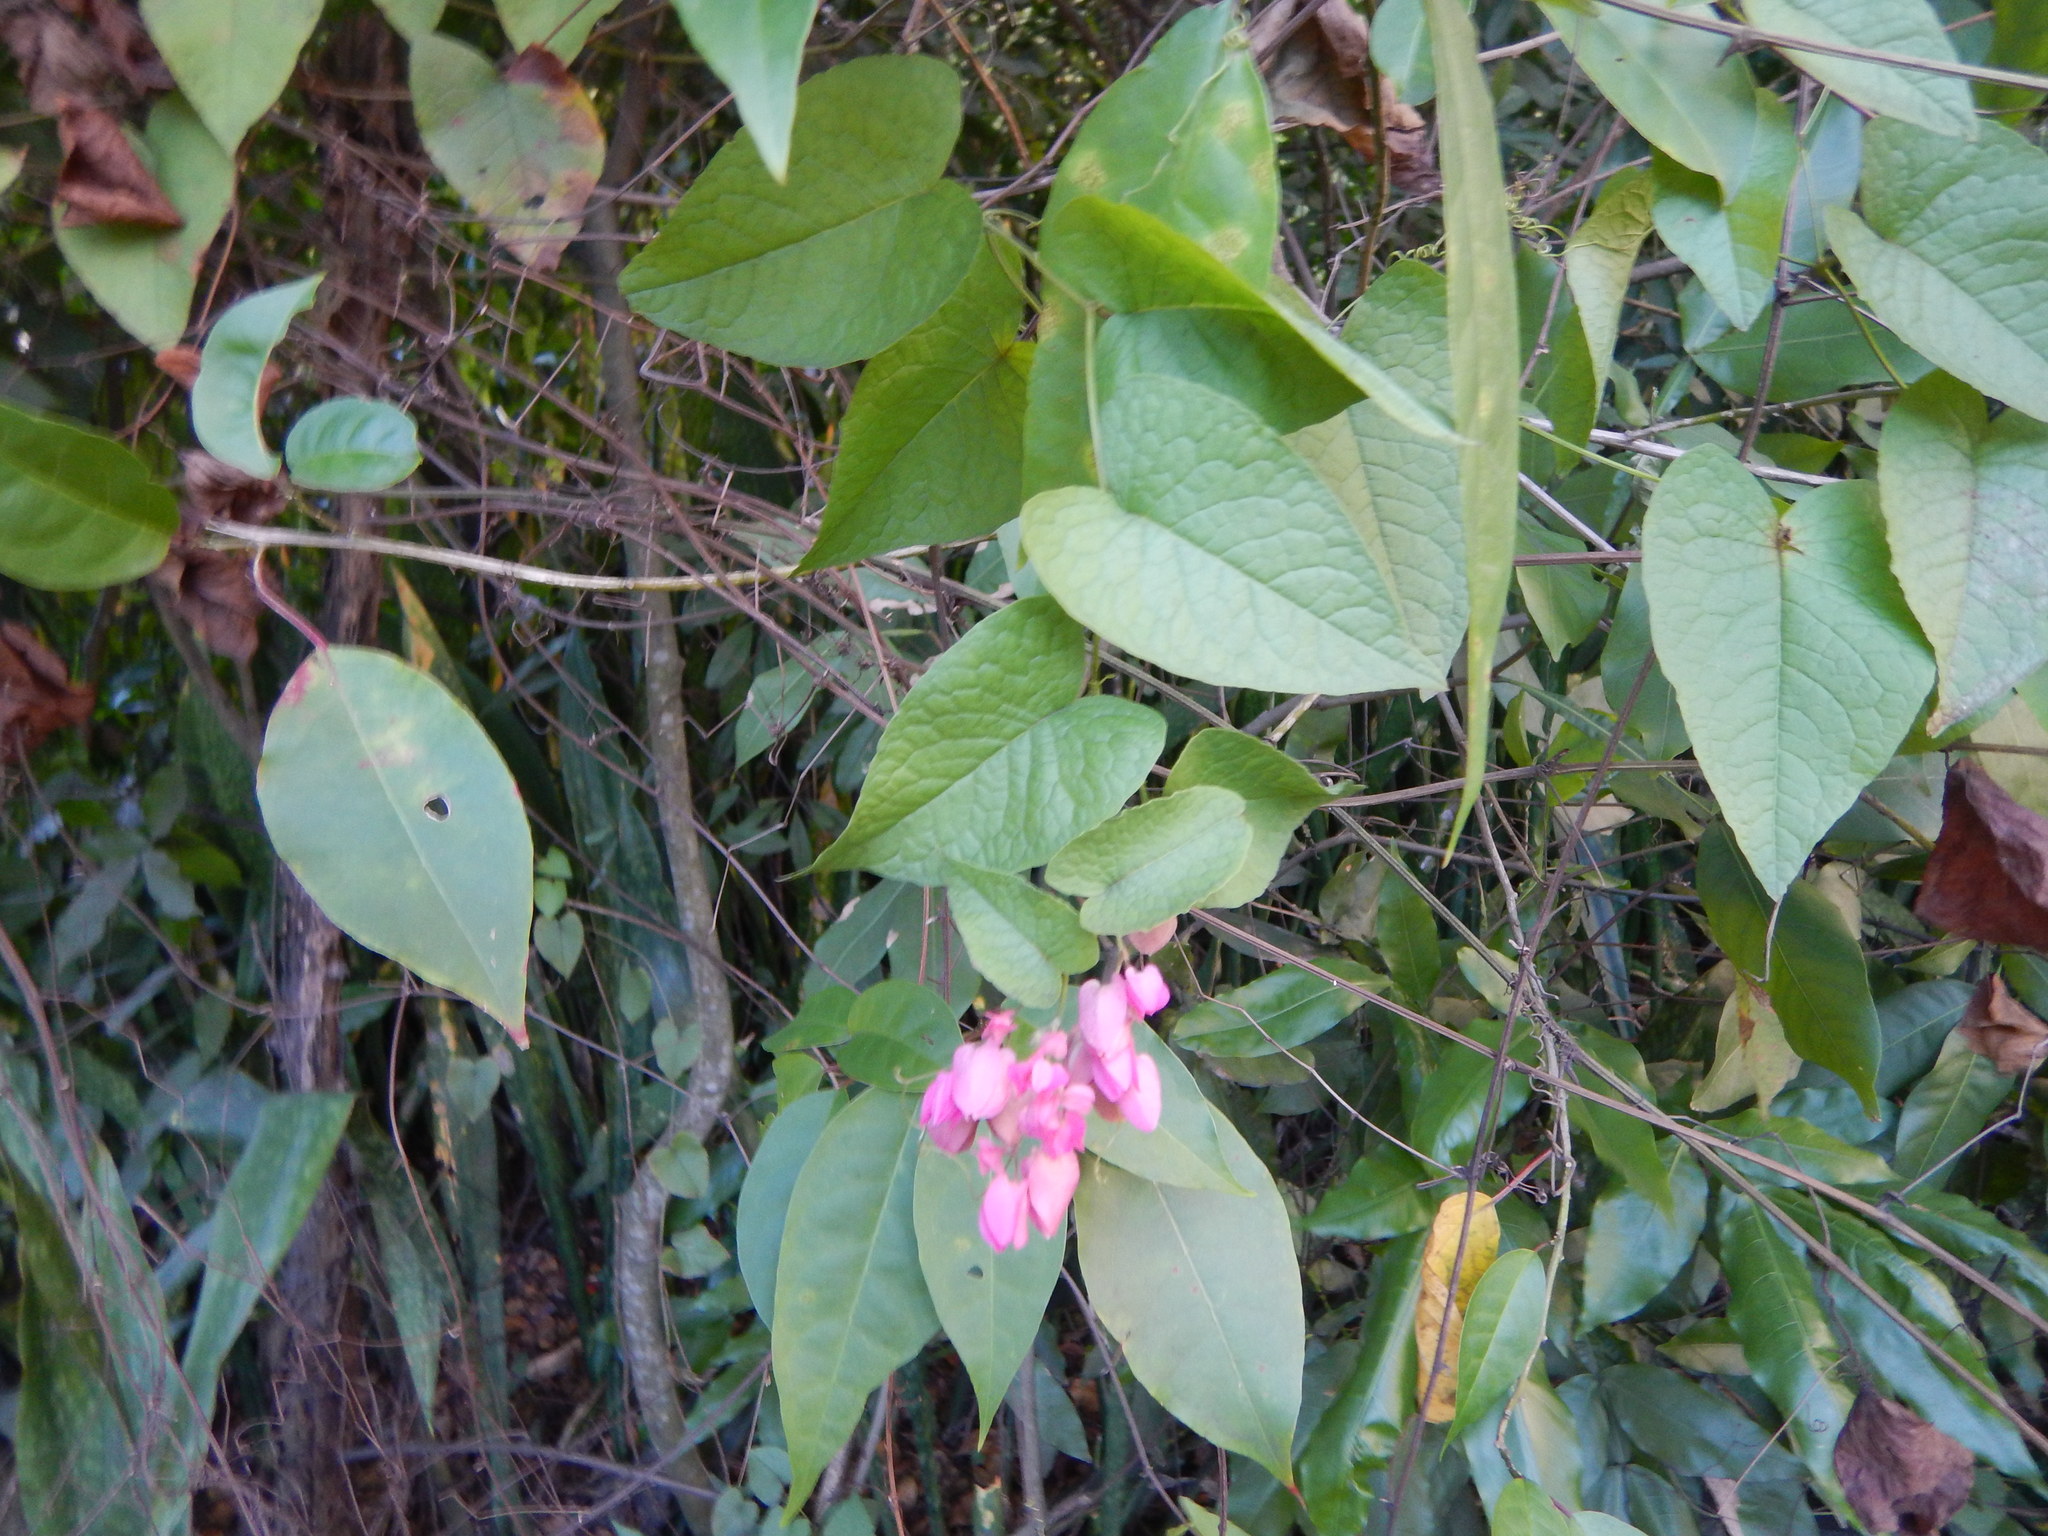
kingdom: Plantae
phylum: Tracheophyta
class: Magnoliopsida
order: Caryophyllales
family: Polygonaceae
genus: Antigonon
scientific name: Antigonon leptopus
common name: Coral vine
